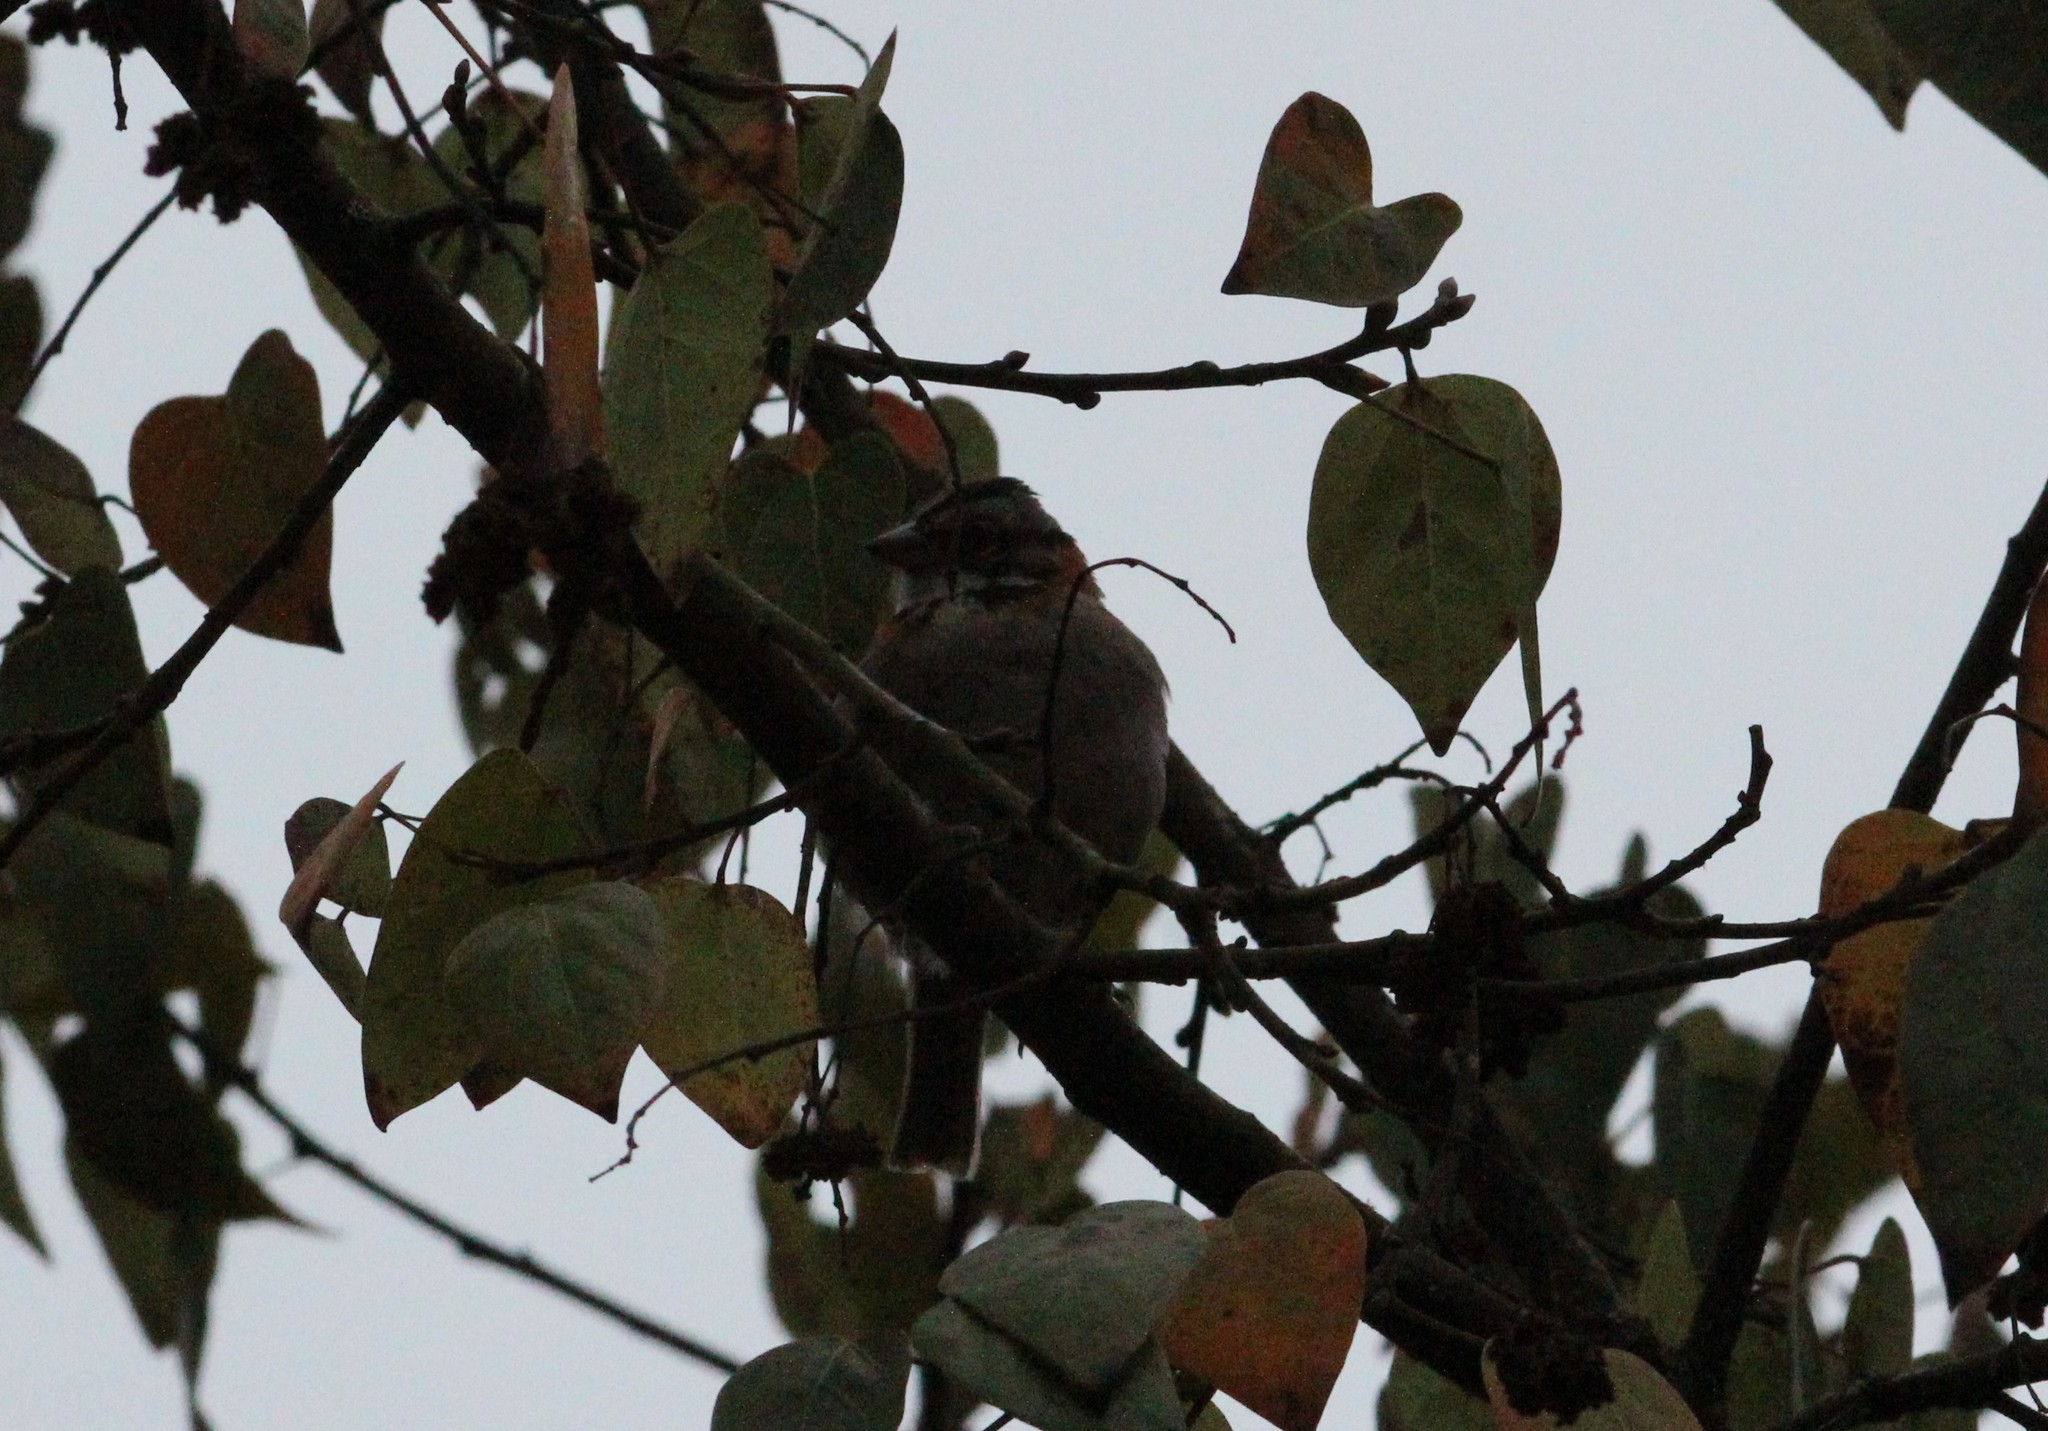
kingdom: Animalia
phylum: Chordata
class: Aves
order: Passeriformes
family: Passerellidae
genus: Zonotrichia
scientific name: Zonotrichia capensis
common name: Rufous-collared sparrow
